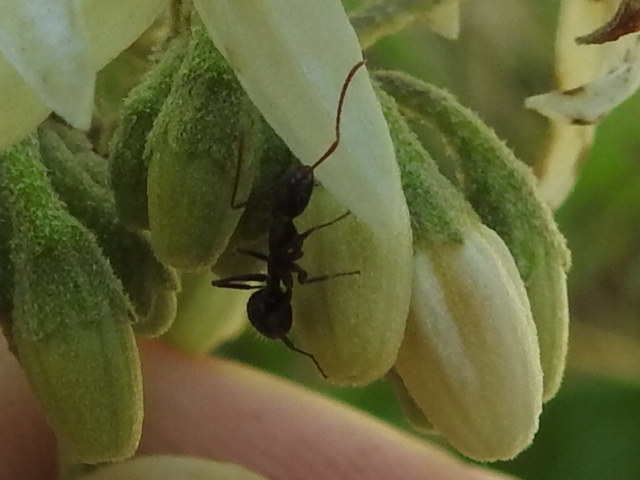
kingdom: Animalia
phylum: Arthropoda
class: Insecta
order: Hymenoptera
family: Formicidae
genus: Camponotus
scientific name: Camponotus sexguttatus
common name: Neotropical carpenter ant
